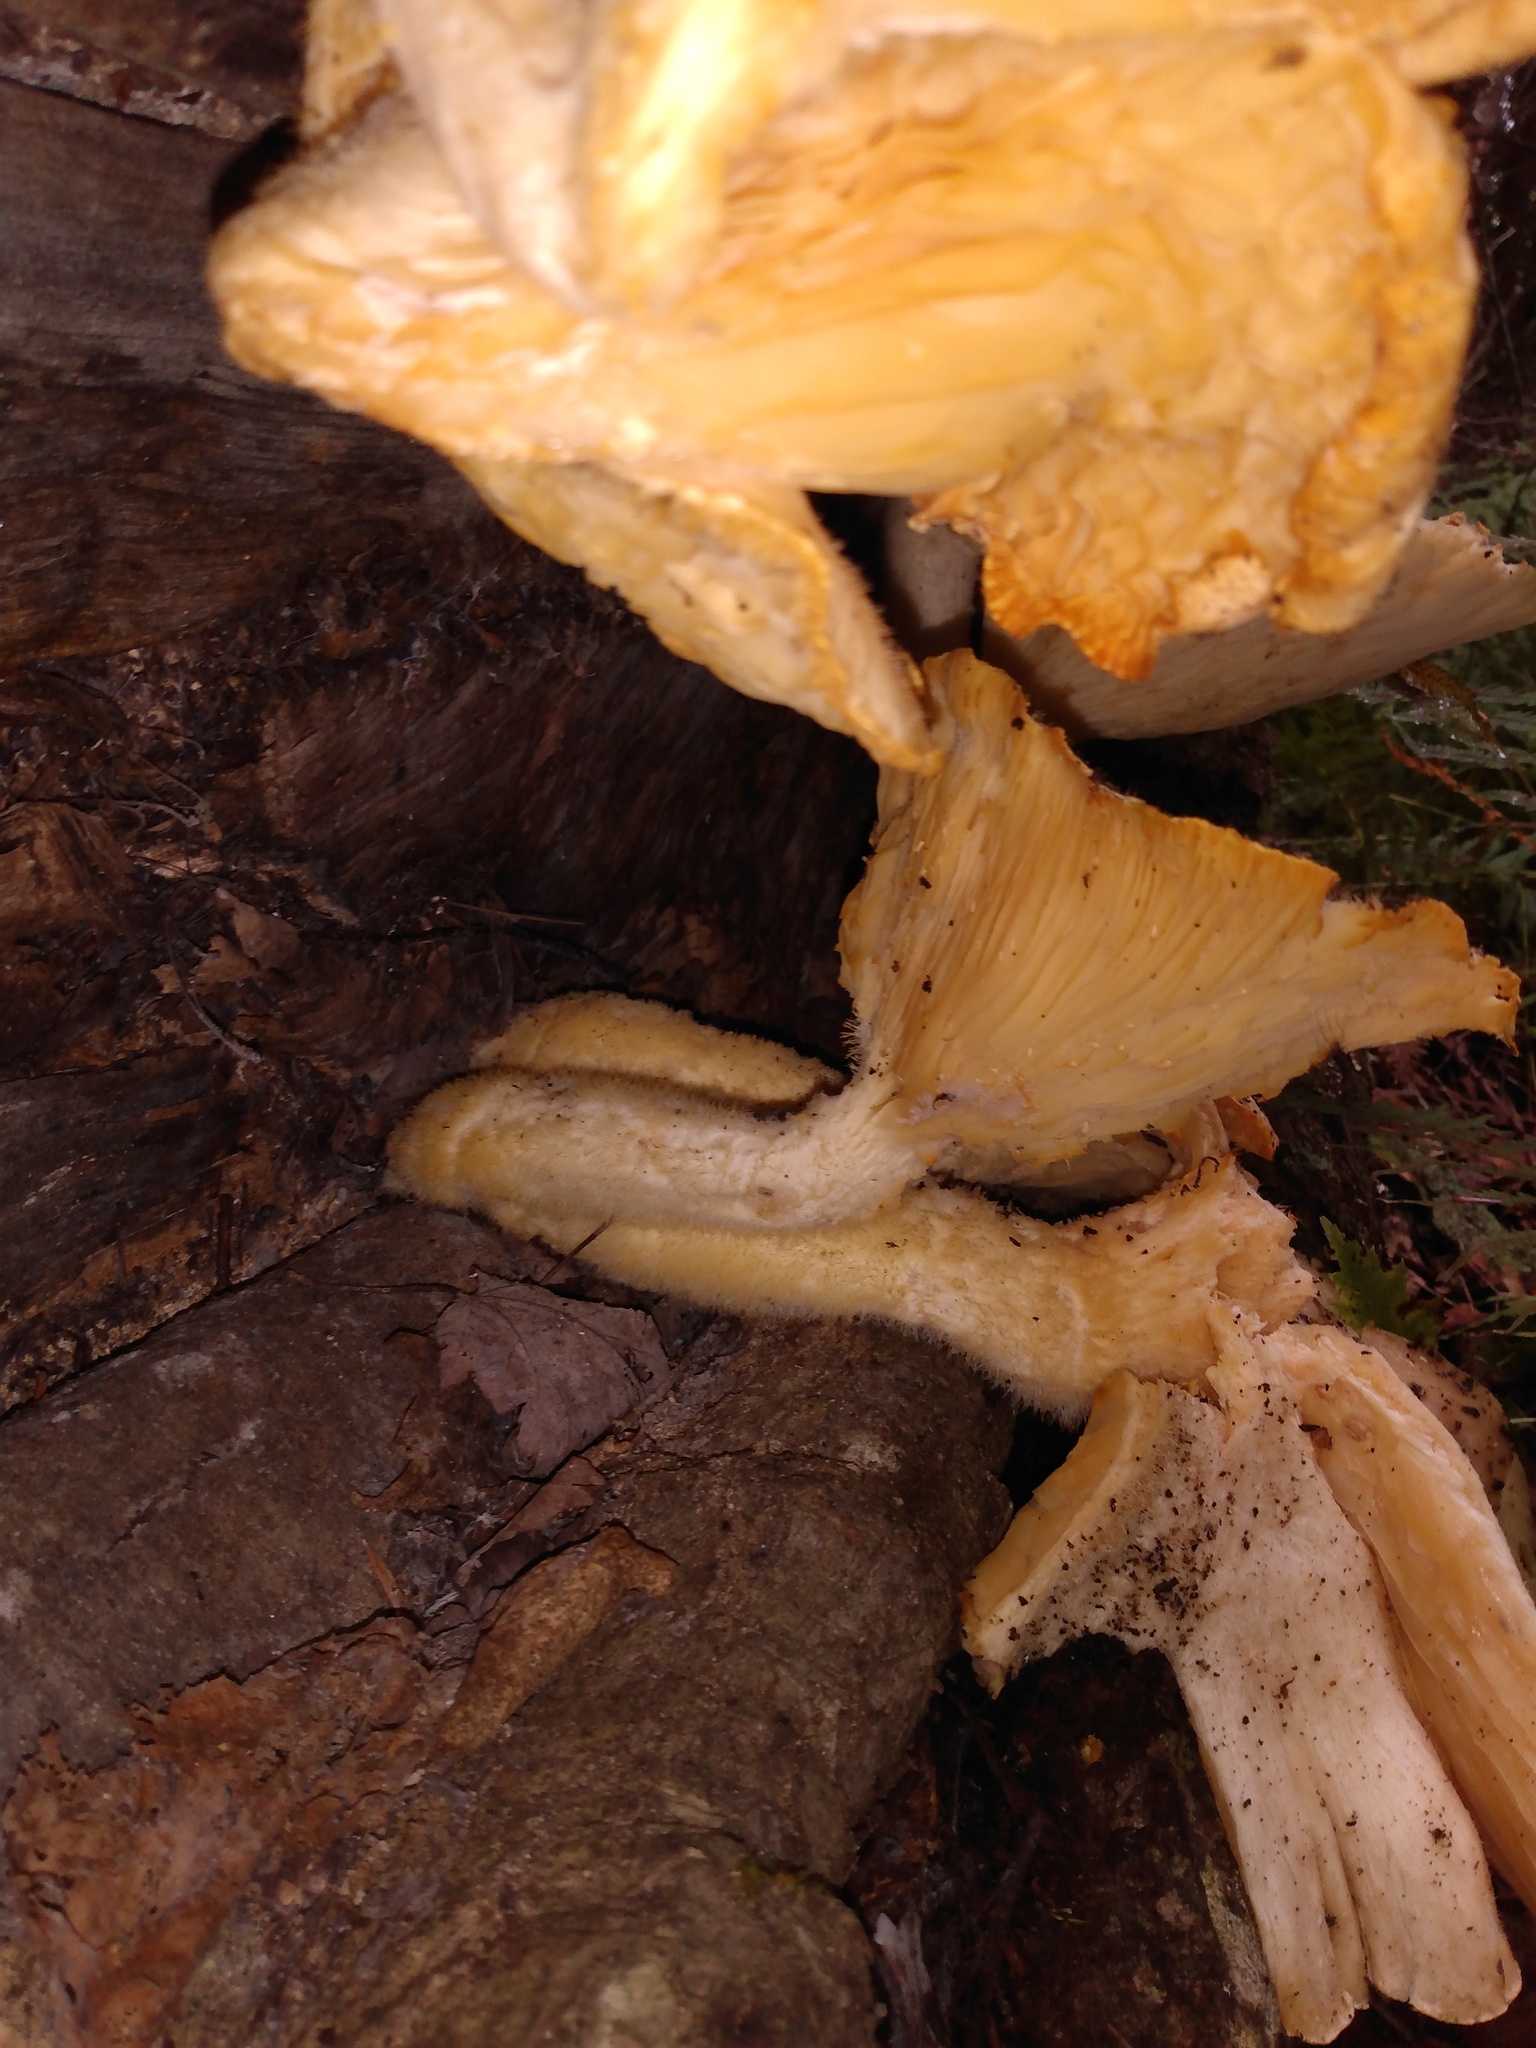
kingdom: Fungi
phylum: Basidiomycota
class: Agaricomycetes
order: Polyporales
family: Polyporaceae
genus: Lentinus
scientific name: Lentinus levis
